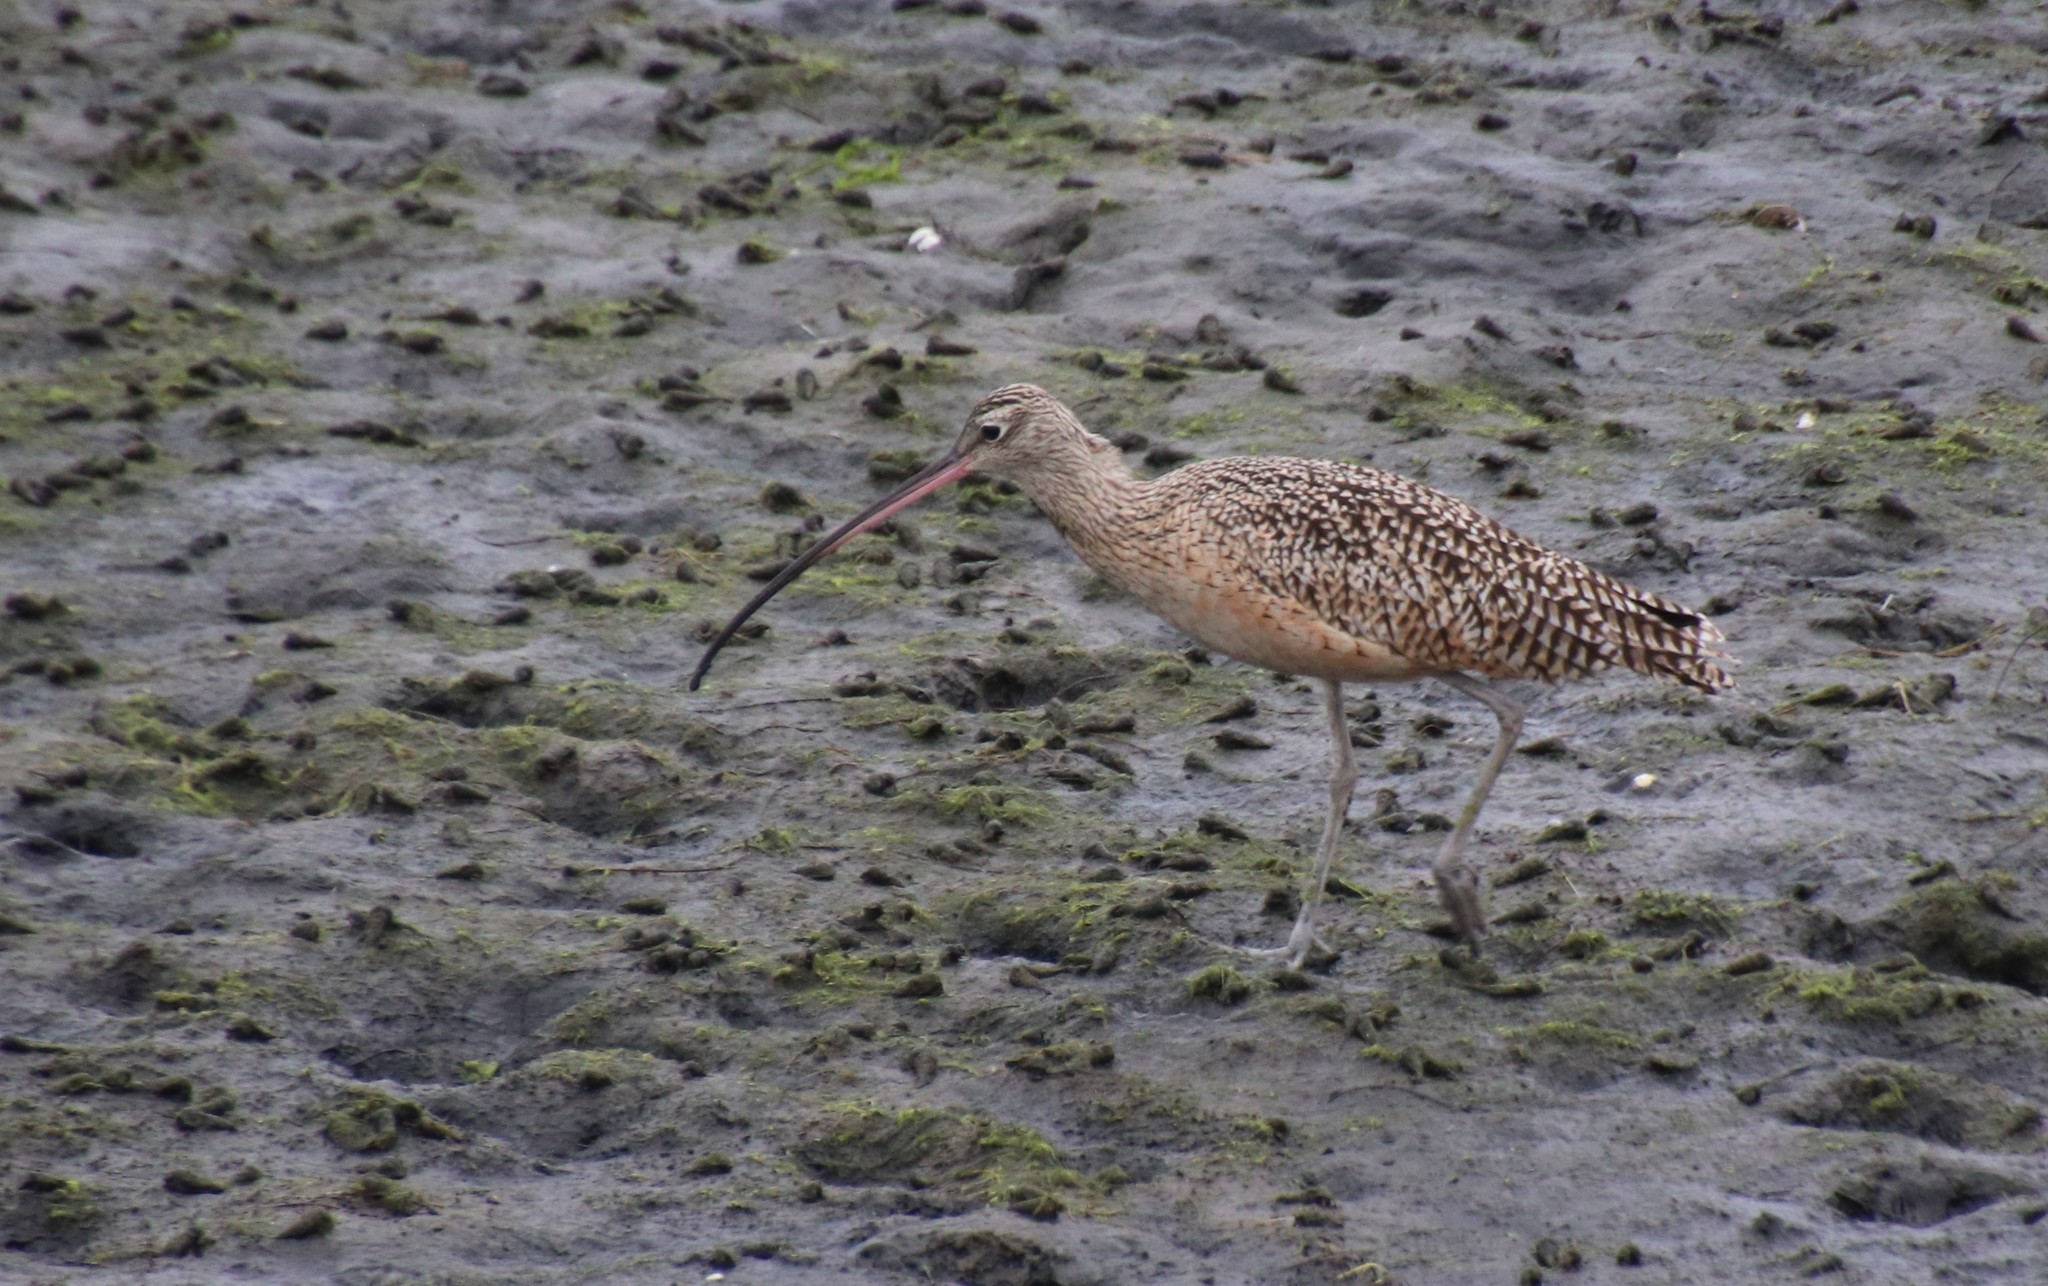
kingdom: Animalia
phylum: Chordata
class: Aves
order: Charadriiformes
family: Scolopacidae
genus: Numenius
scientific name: Numenius americanus
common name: Long-billed curlew
